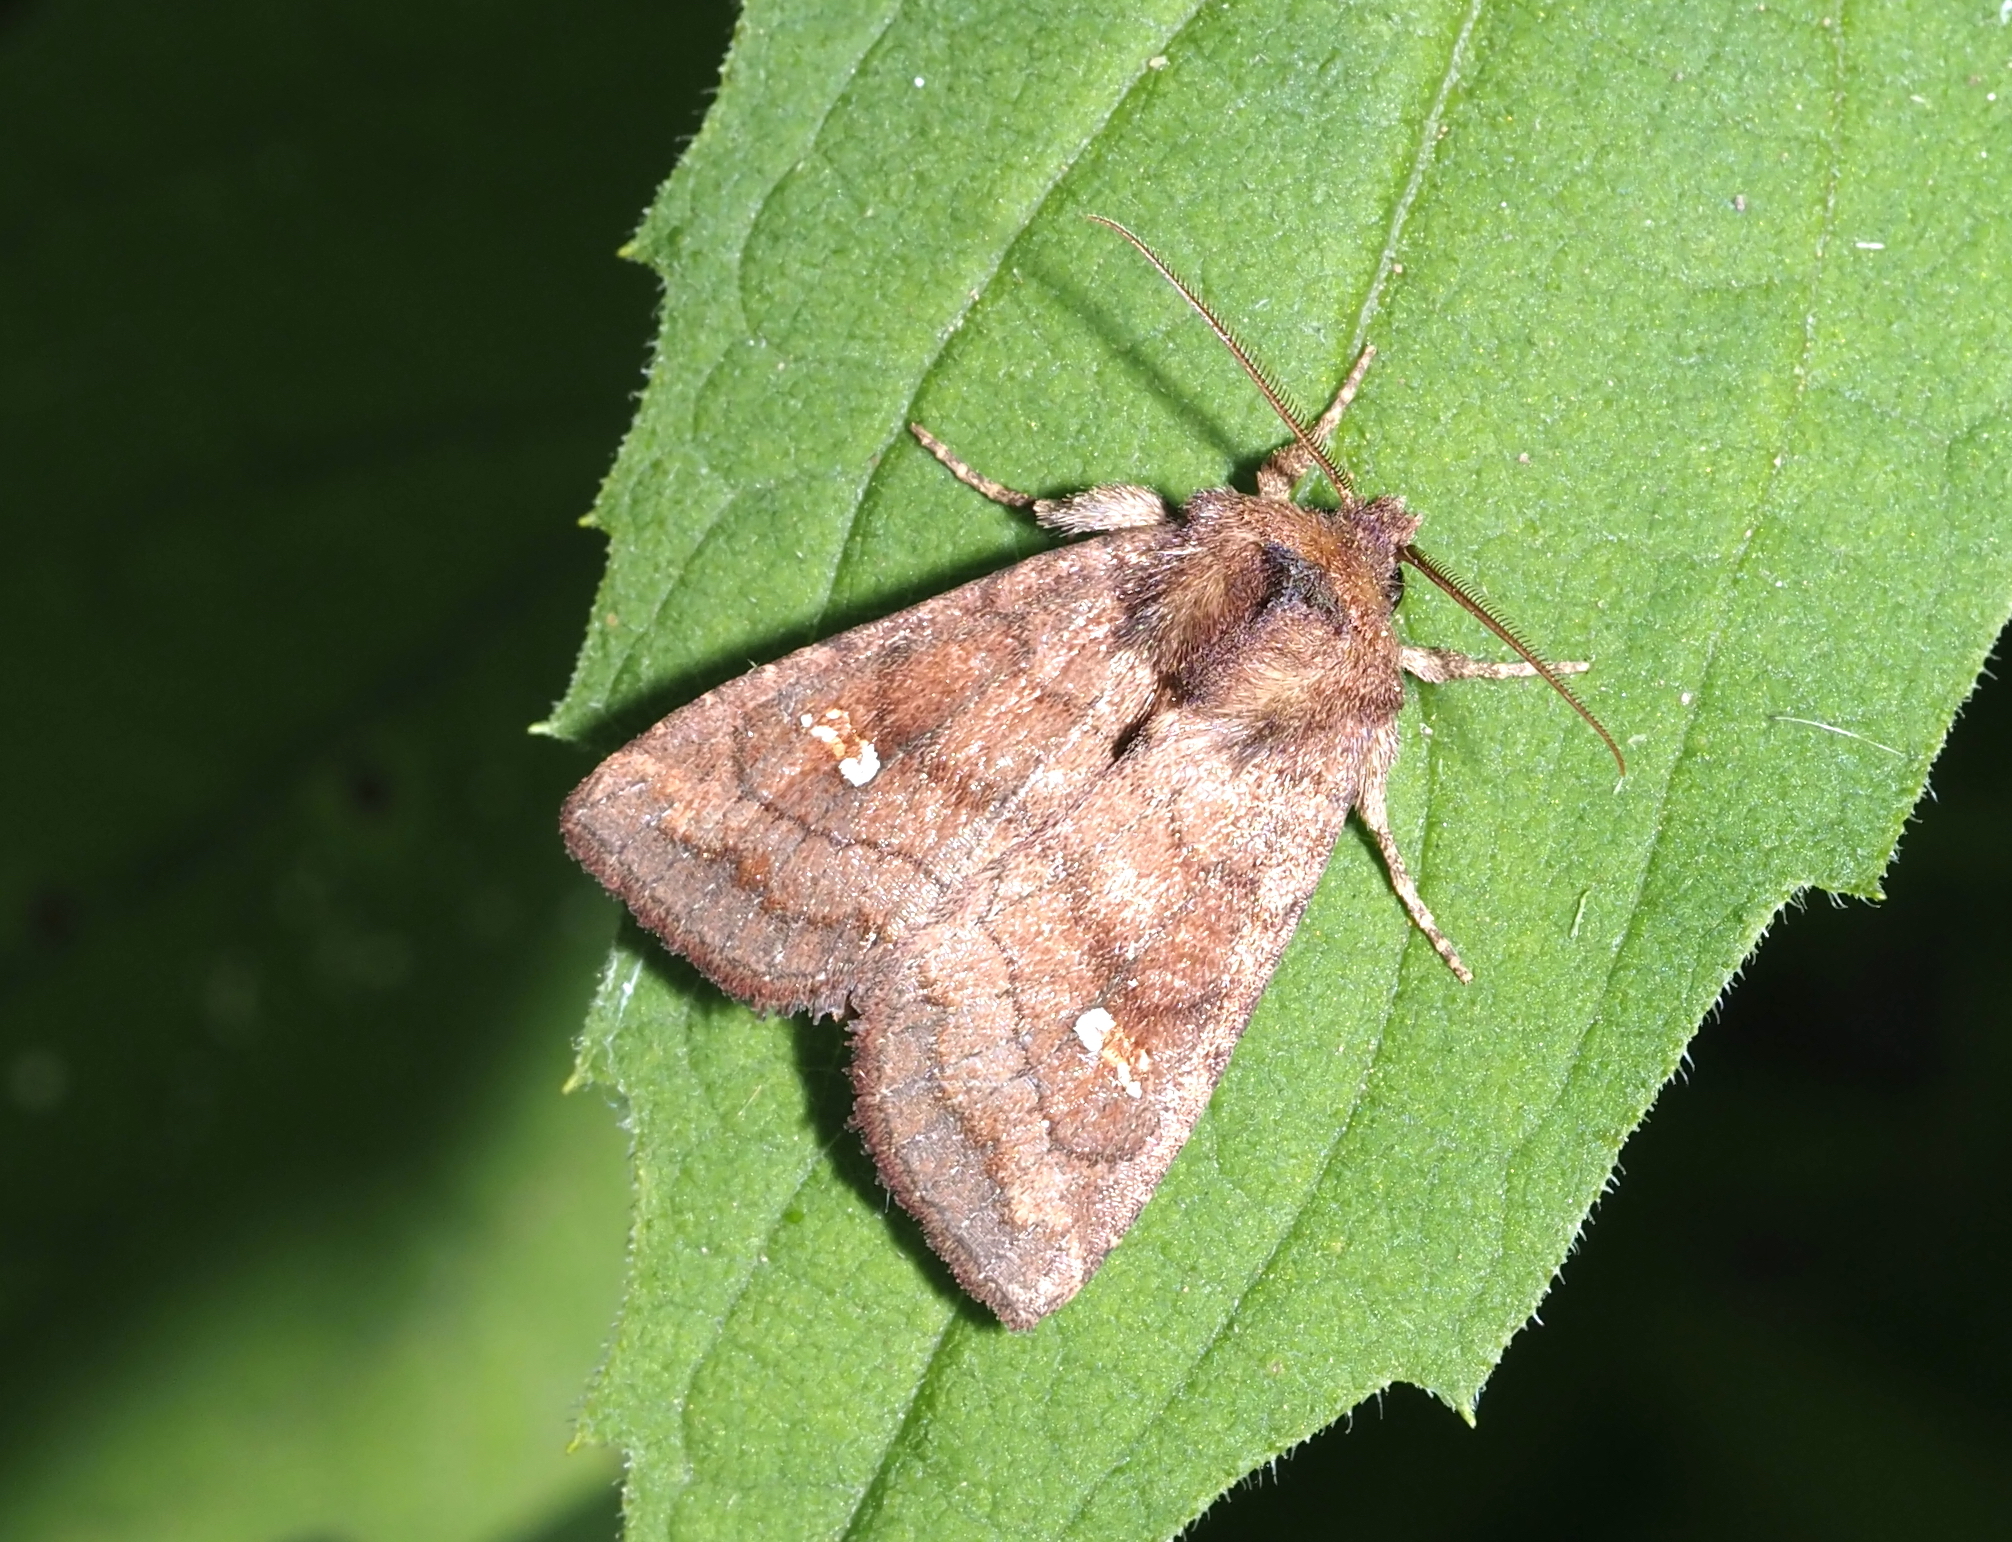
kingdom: Animalia
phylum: Arthropoda
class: Insecta
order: Lepidoptera
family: Noctuidae
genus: Tricholita
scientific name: Tricholita signata
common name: Signate quaker
